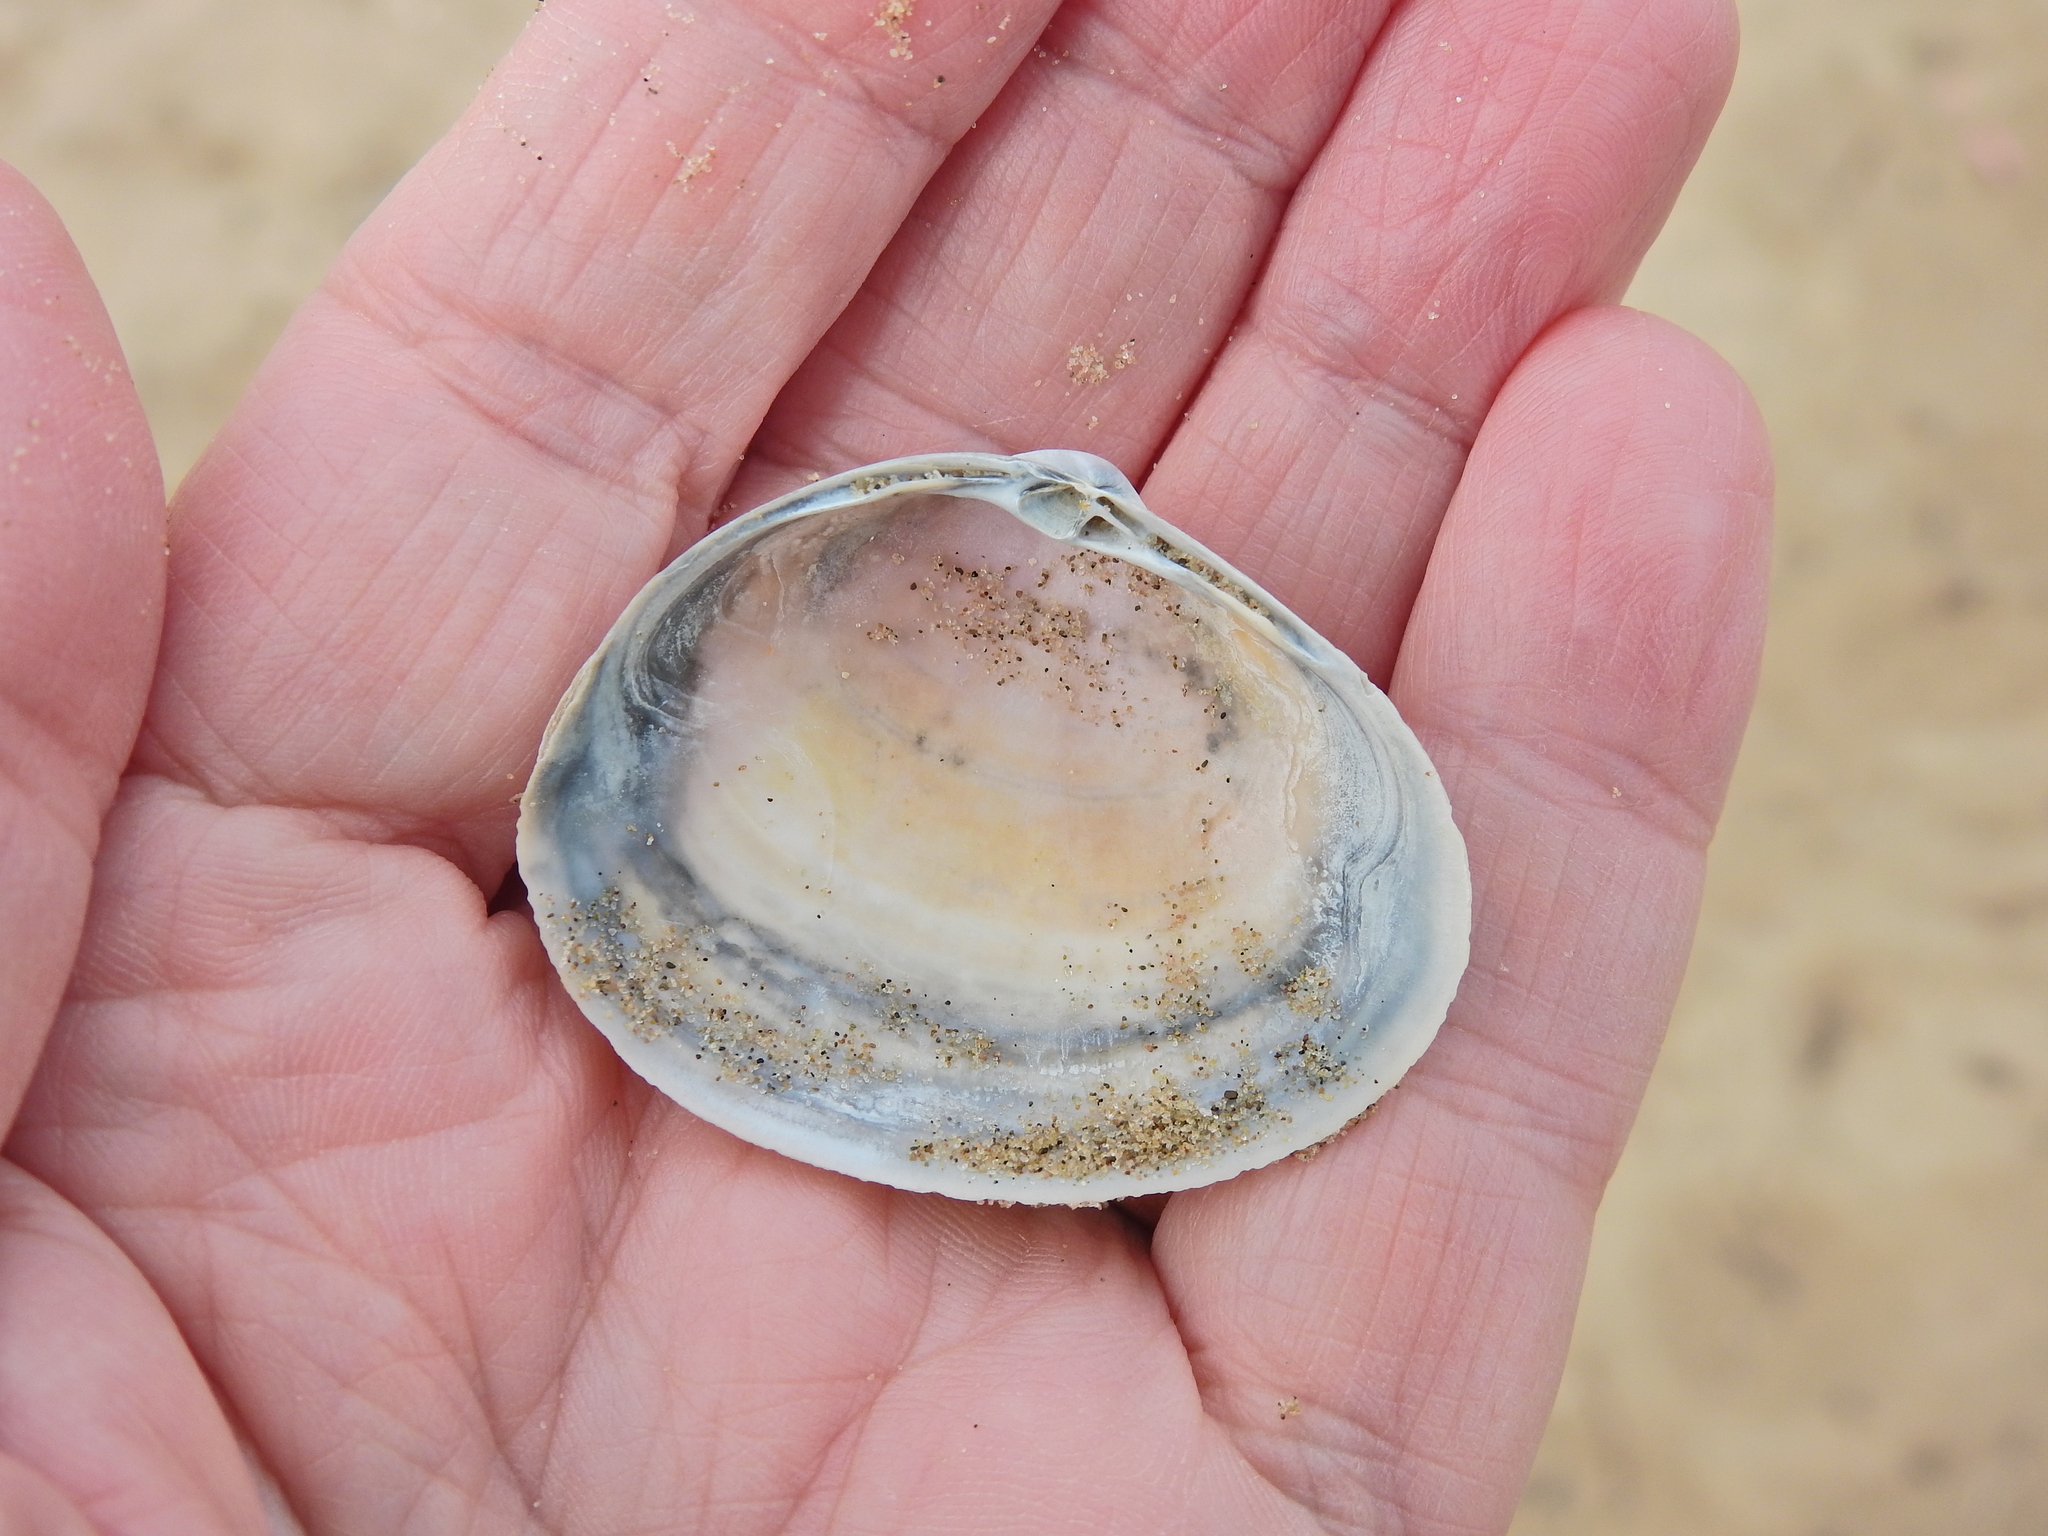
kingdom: Animalia
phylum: Mollusca
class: Bivalvia
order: Venerida
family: Mactridae
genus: Mactra
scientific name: Mactra stultorum
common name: Rayed trough shell
